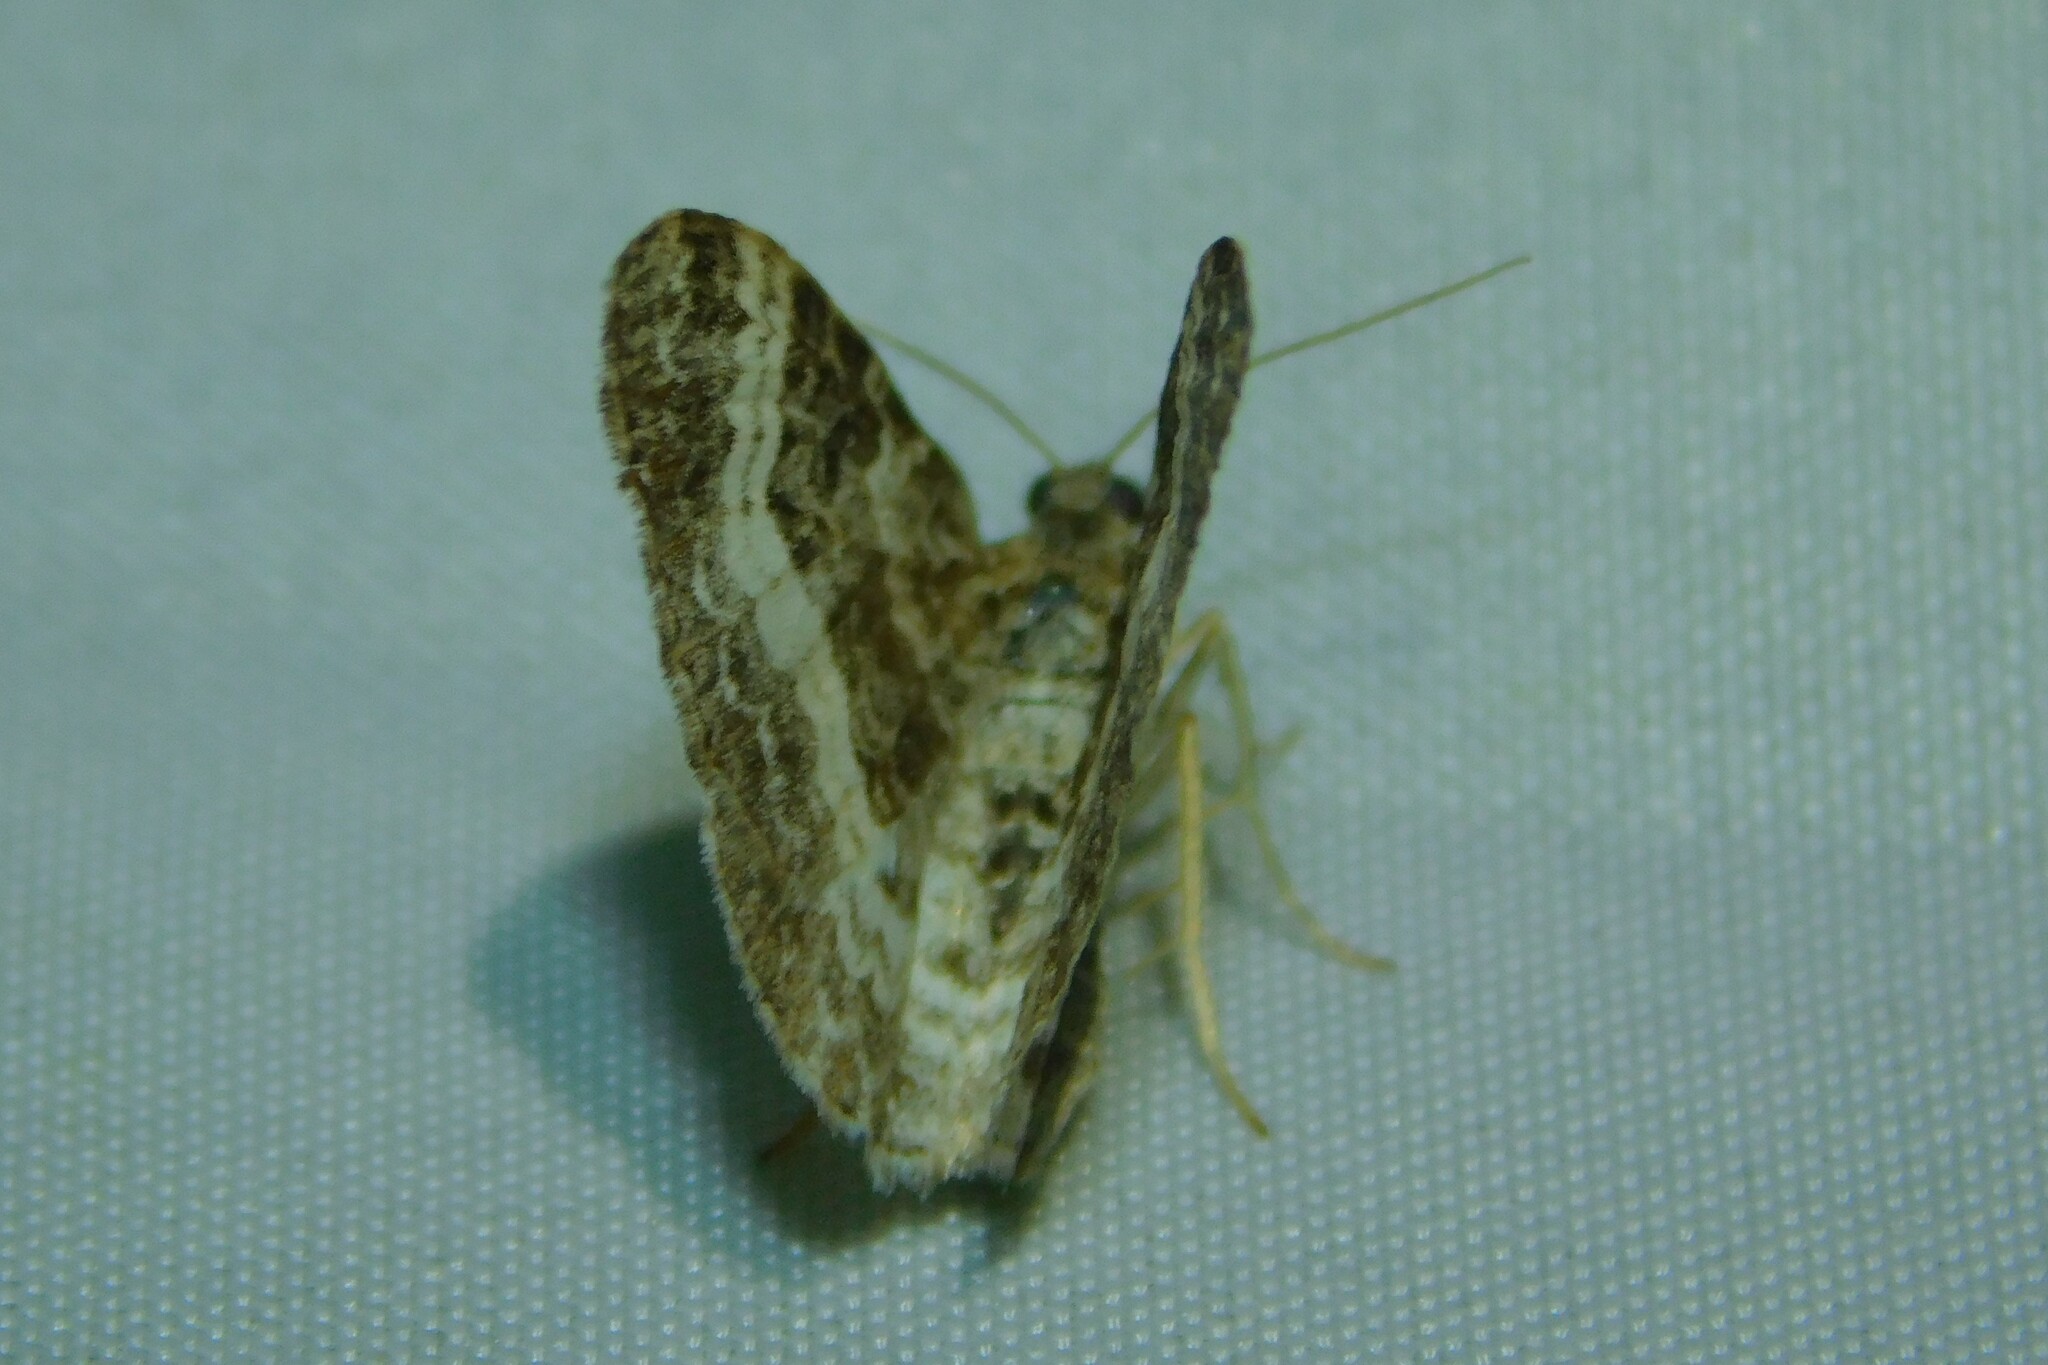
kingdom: Animalia
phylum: Arthropoda
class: Insecta
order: Lepidoptera
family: Geometridae
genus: Epirrhoe
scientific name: Epirrhoe alternata
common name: Common carpet
